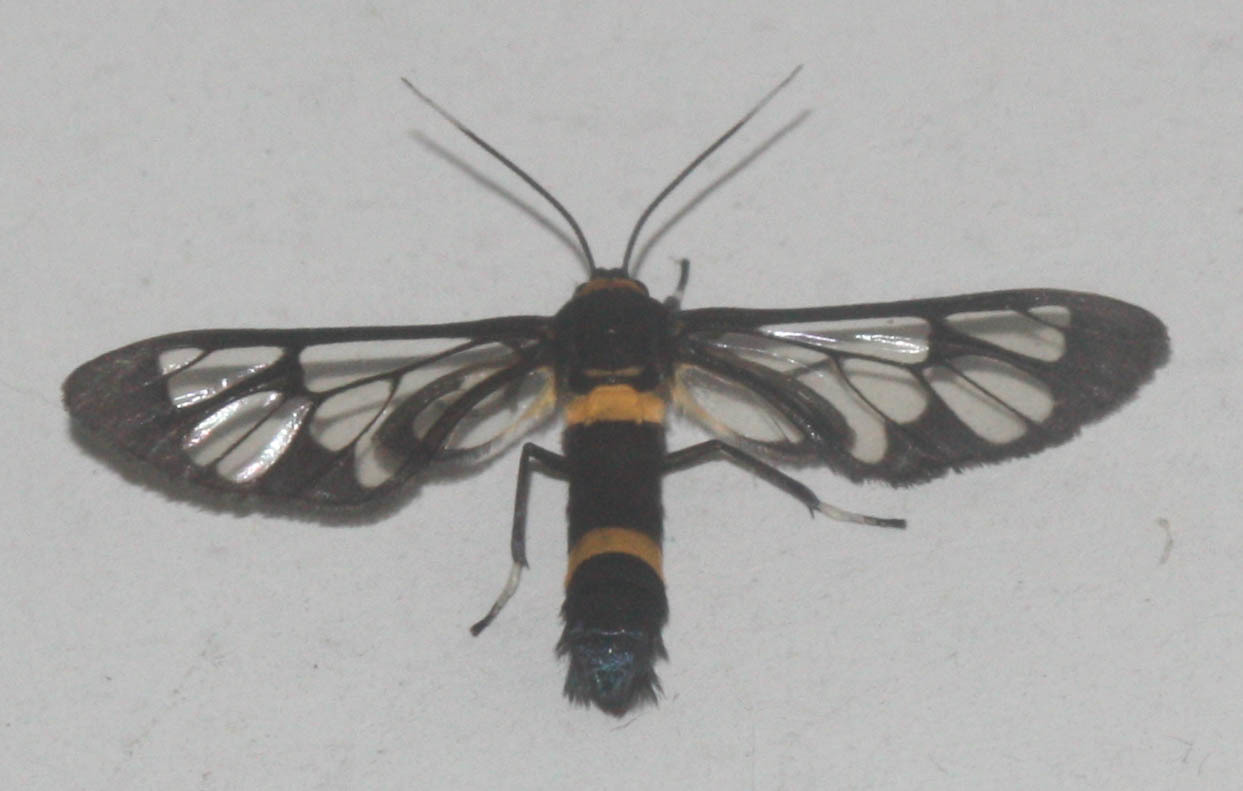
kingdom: Animalia
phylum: Arthropoda
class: Insecta
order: Lepidoptera
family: Erebidae
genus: Syntomoides
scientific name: Syntomoides imaon
